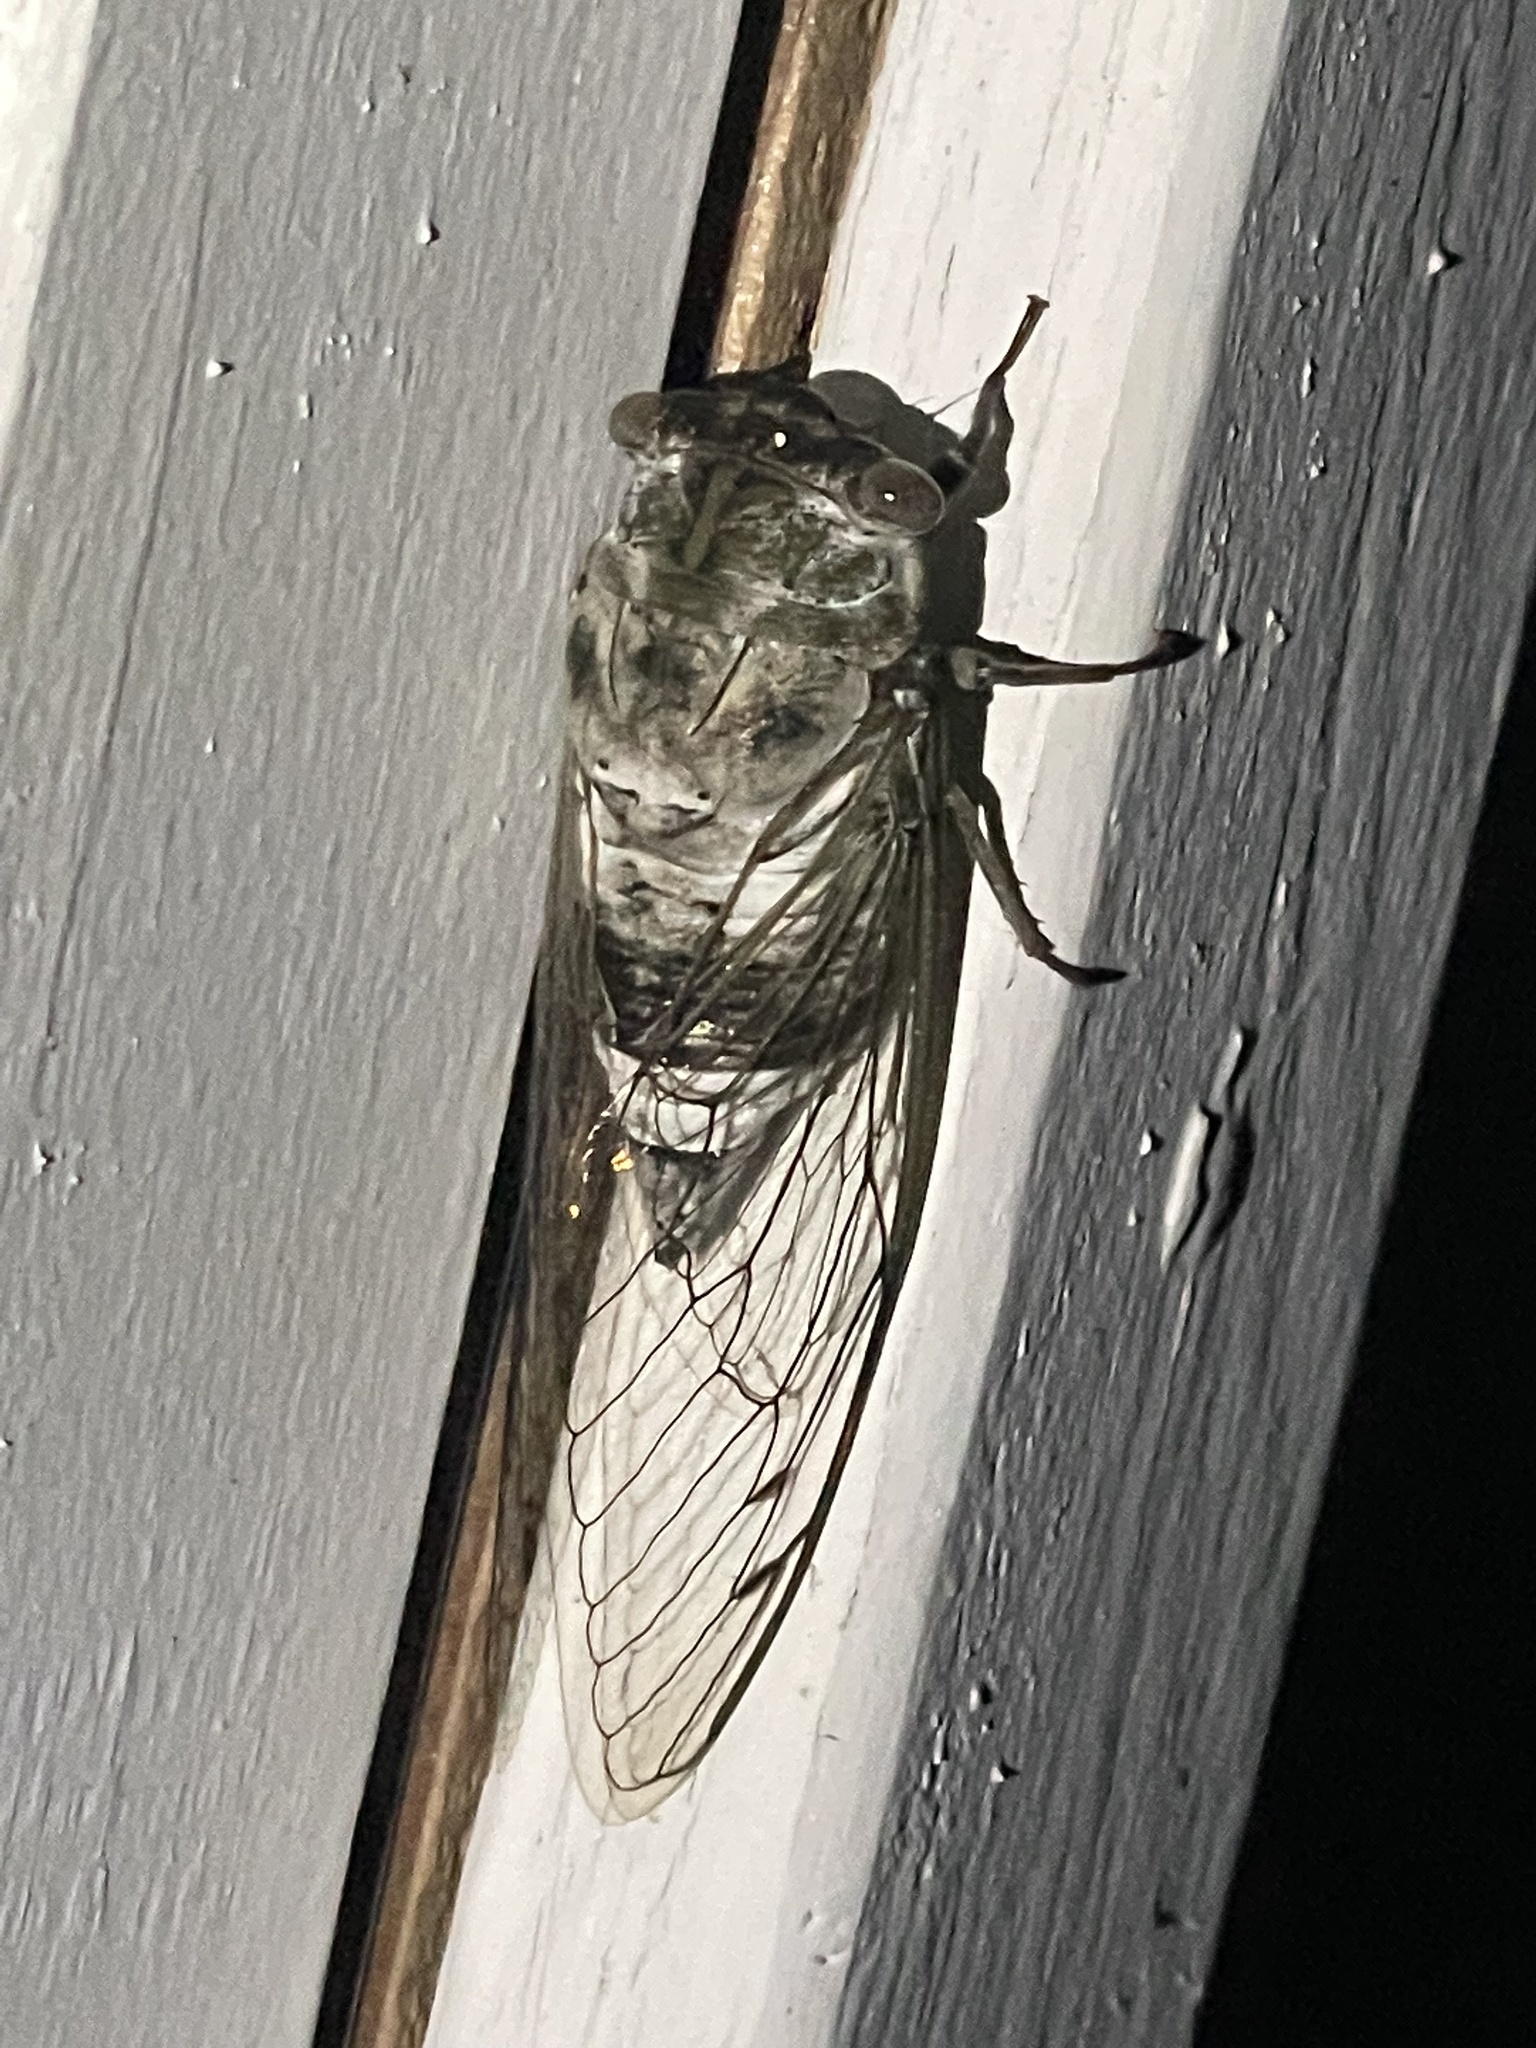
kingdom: Animalia
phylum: Arthropoda
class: Insecta
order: Hemiptera
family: Cicadidae
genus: Diceroprocta
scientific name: Diceroprocta grossa
